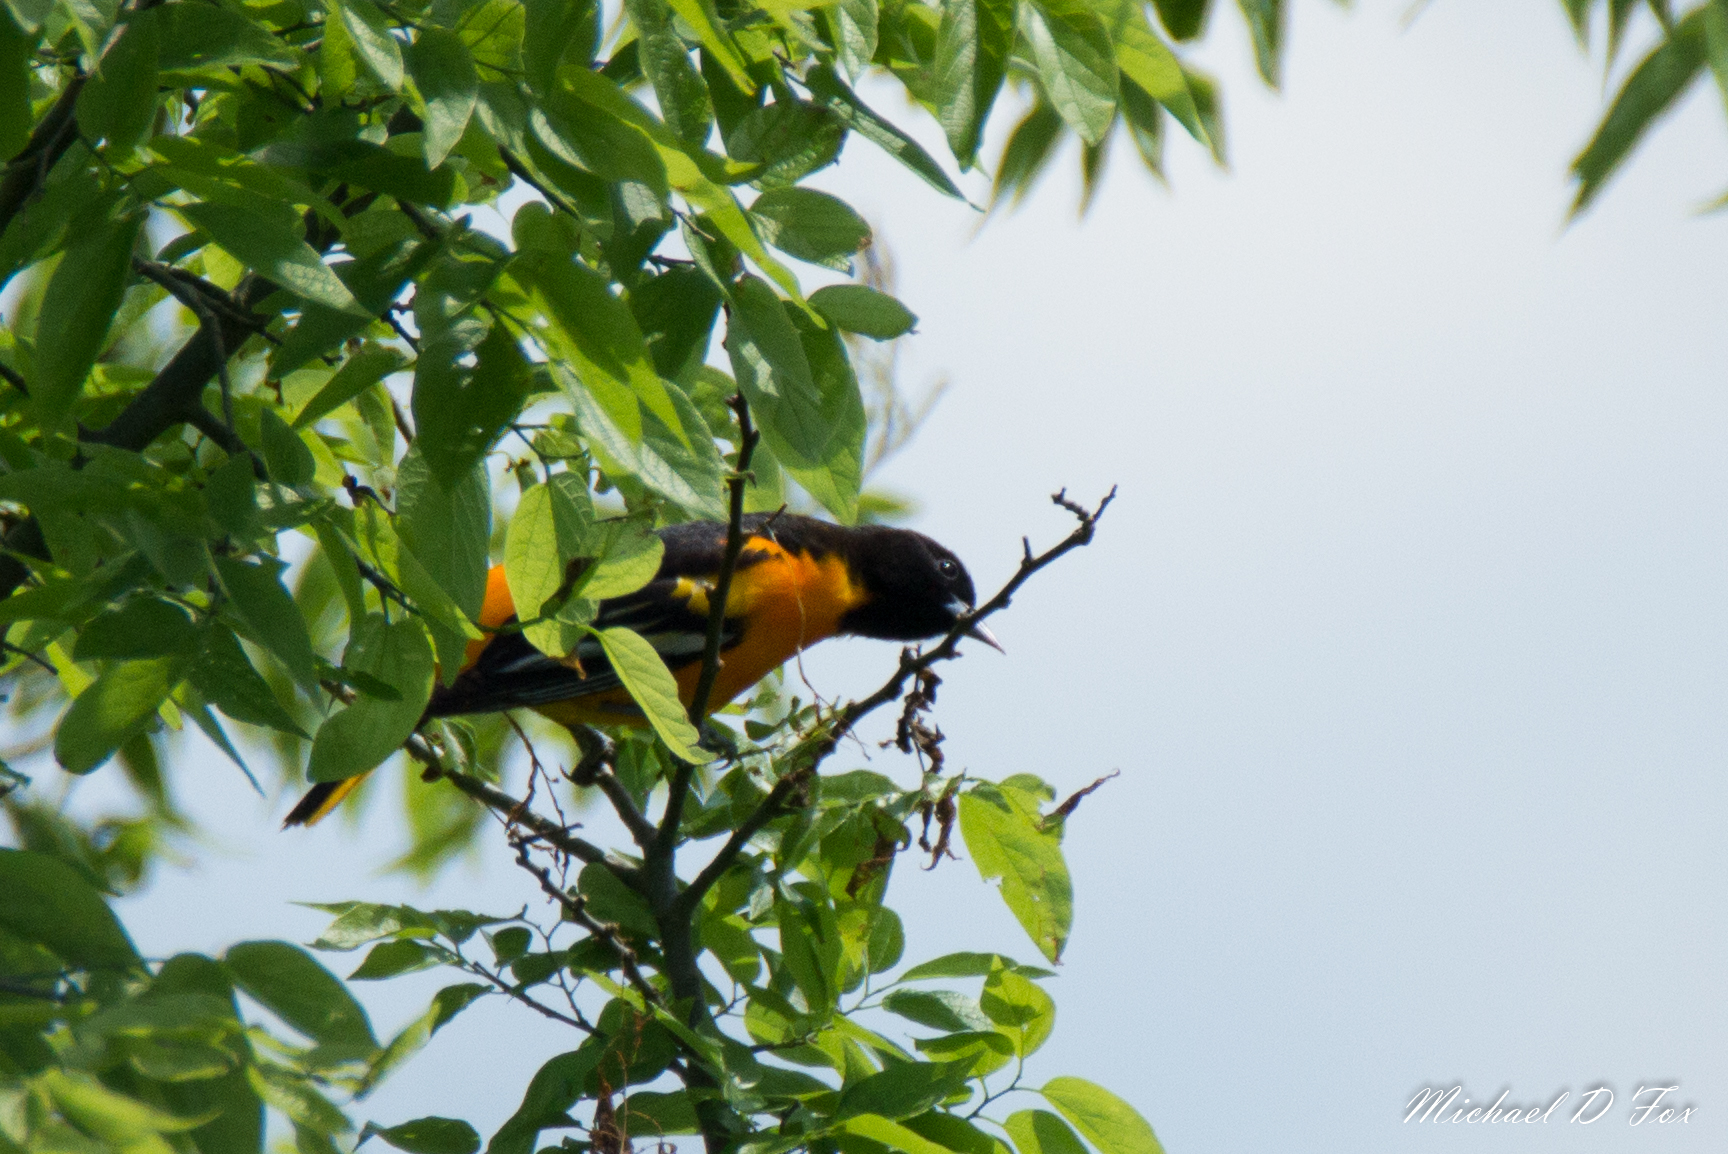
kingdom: Animalia
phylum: Chordata
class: Aves
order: Passeriformes
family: Icteridae
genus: Icterus
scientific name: Icterus galbula
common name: Baltimore oriole
